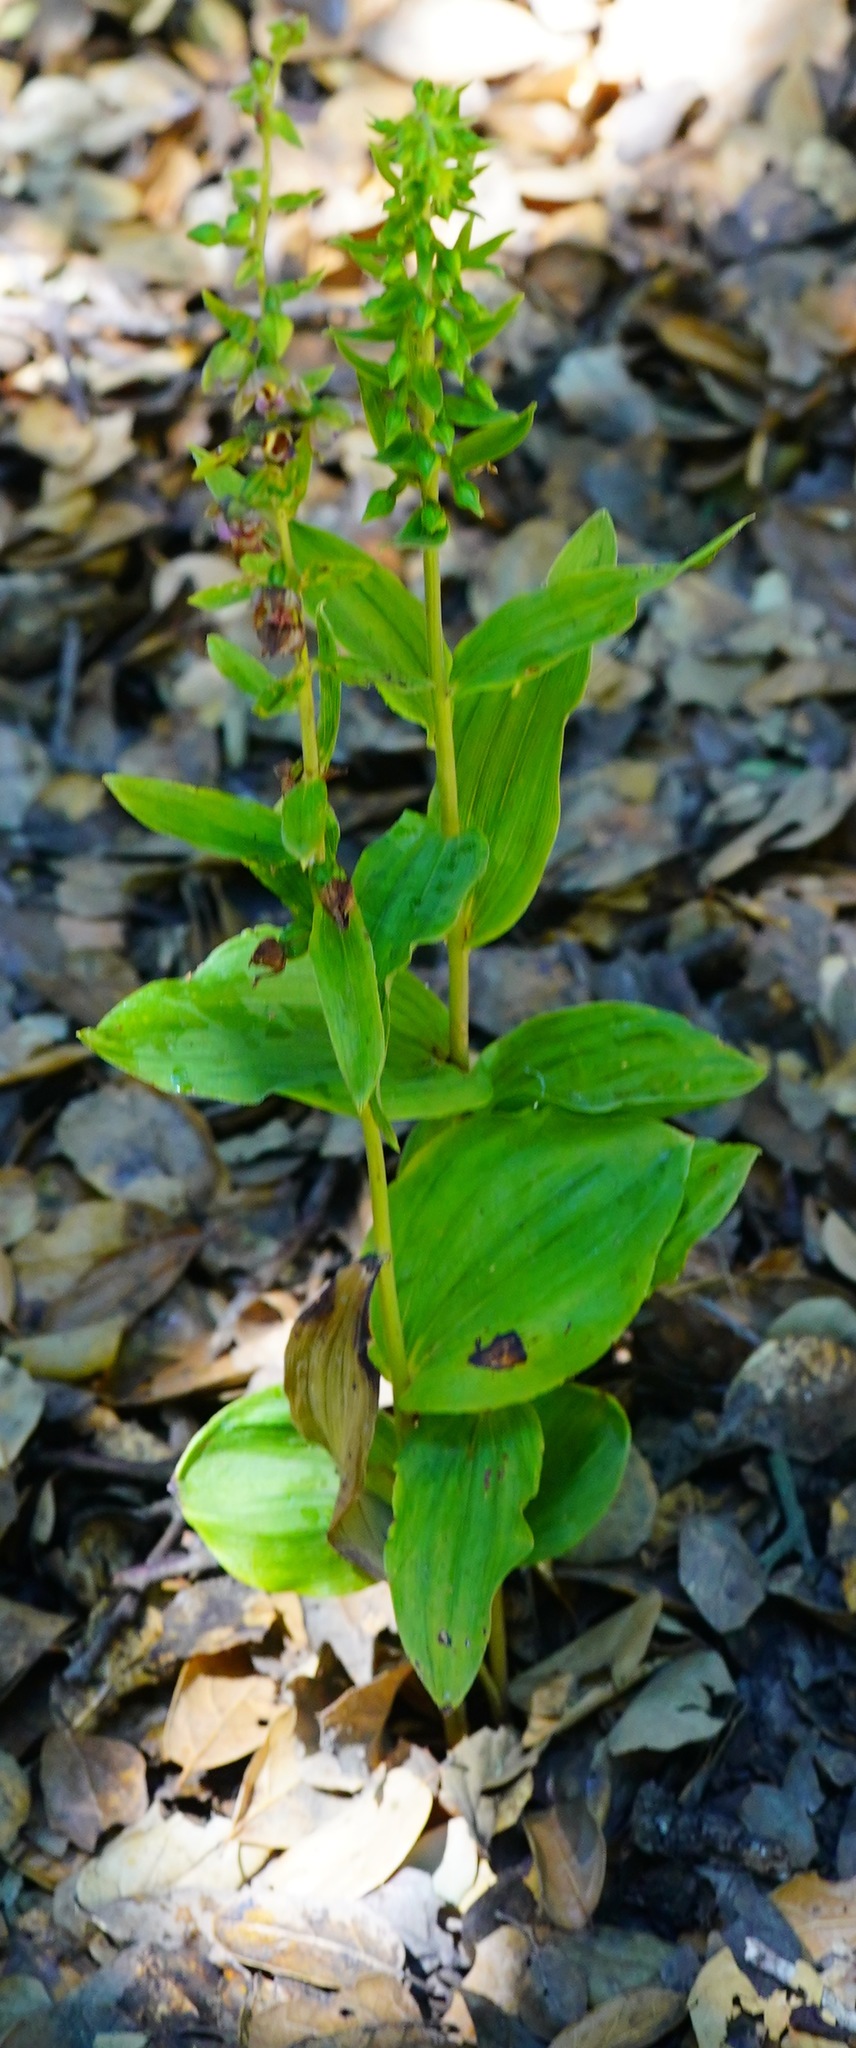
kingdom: Plantae
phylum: Tracheophyta
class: Liliopsida
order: Asparagales
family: Orchidaceae
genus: Epipactis
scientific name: Epipactis helleborine
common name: Broad-leaved helleborine
